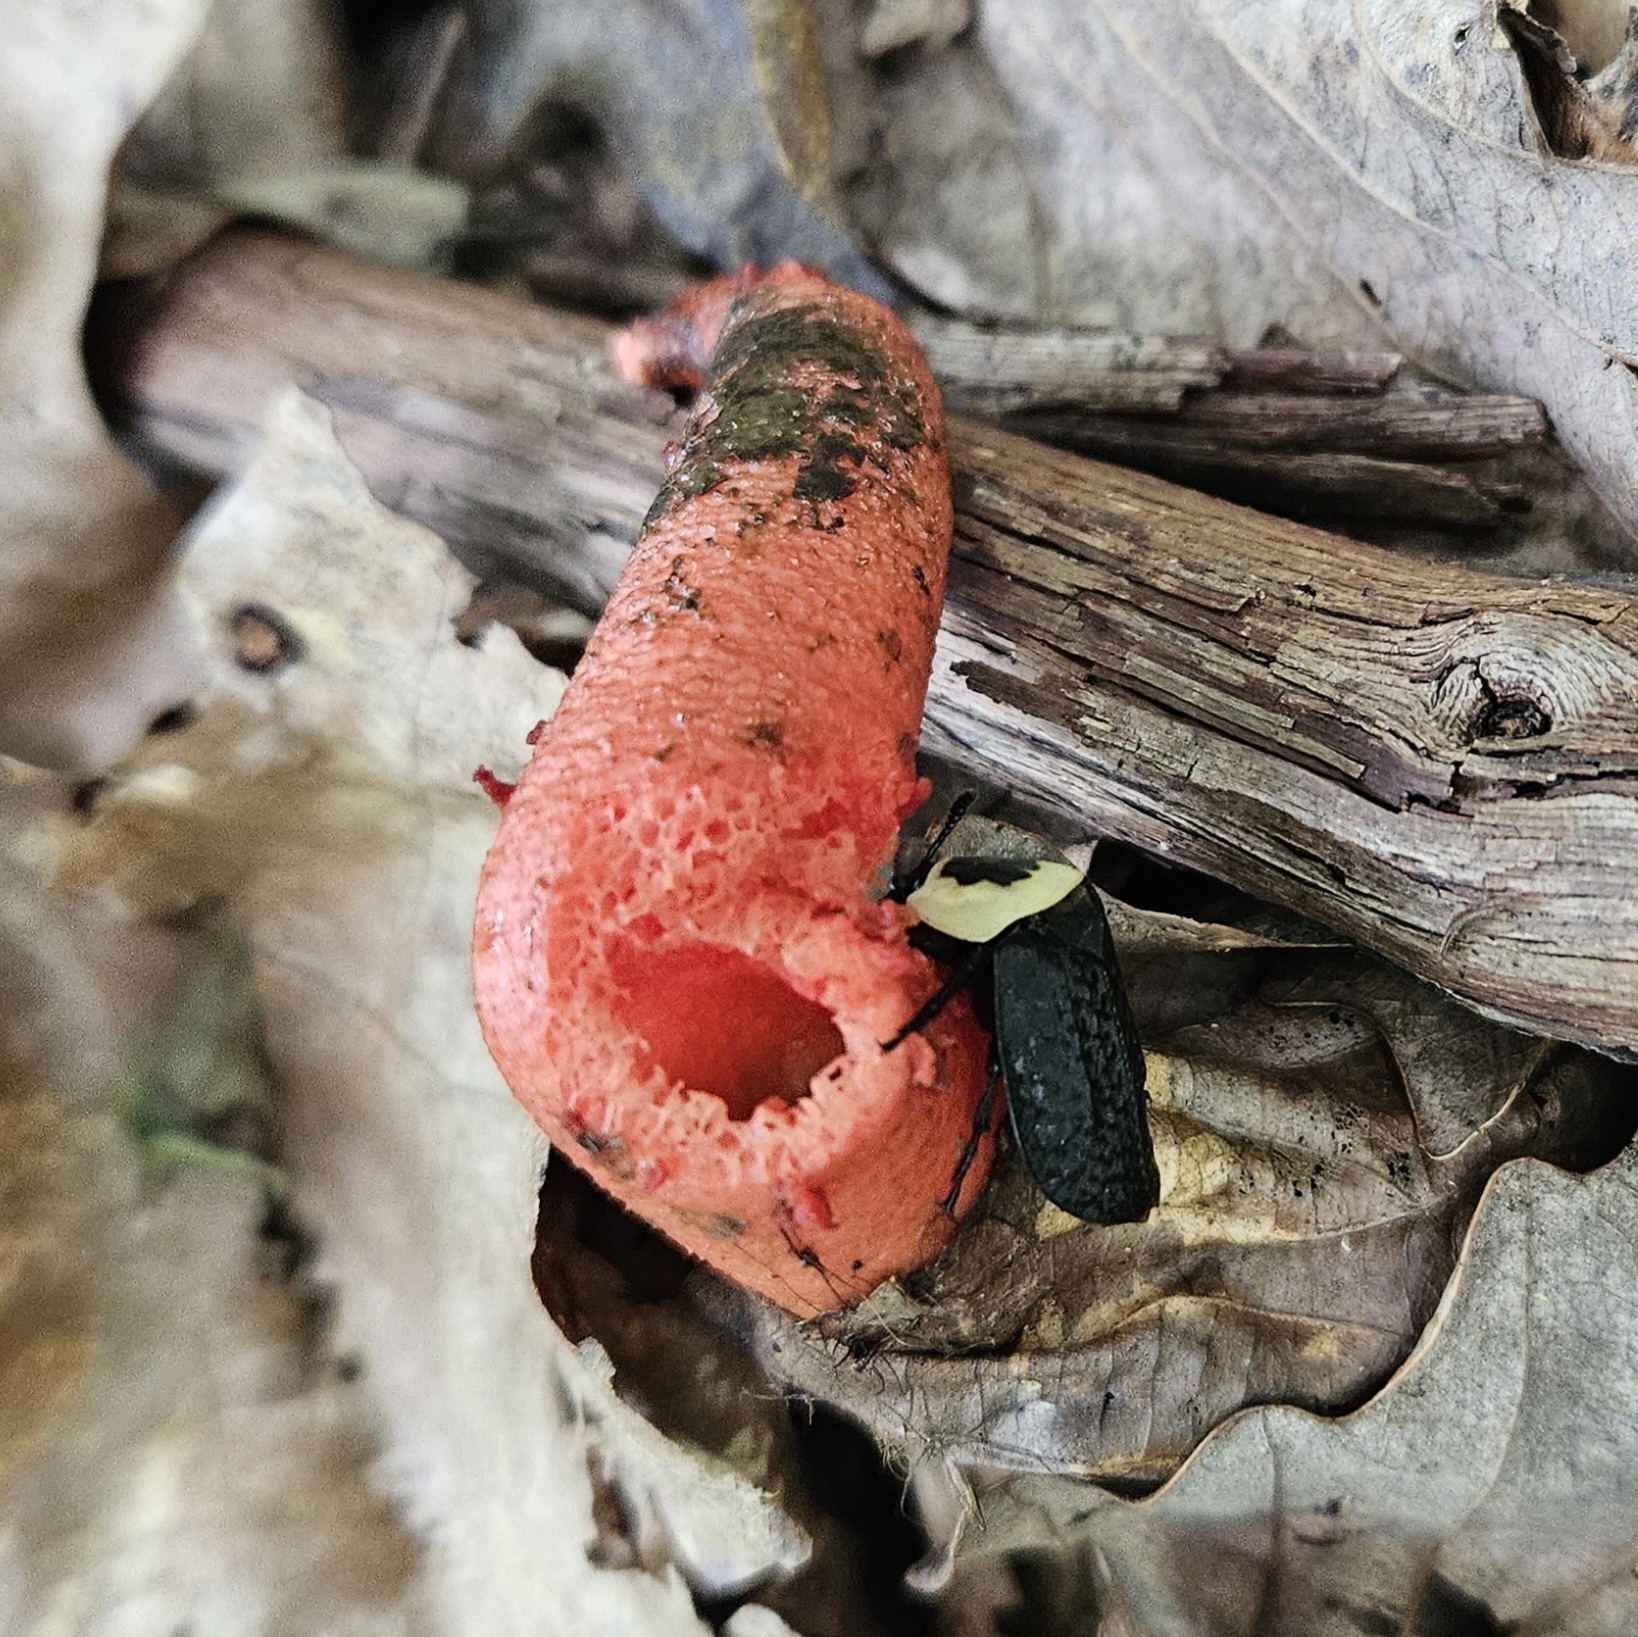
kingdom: Fungi
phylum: Basidiomycota
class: Agaricomycetes
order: Phallales
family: Phallaceae
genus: Mutinus
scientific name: Mutinus elegans
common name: Devil's dipstick
